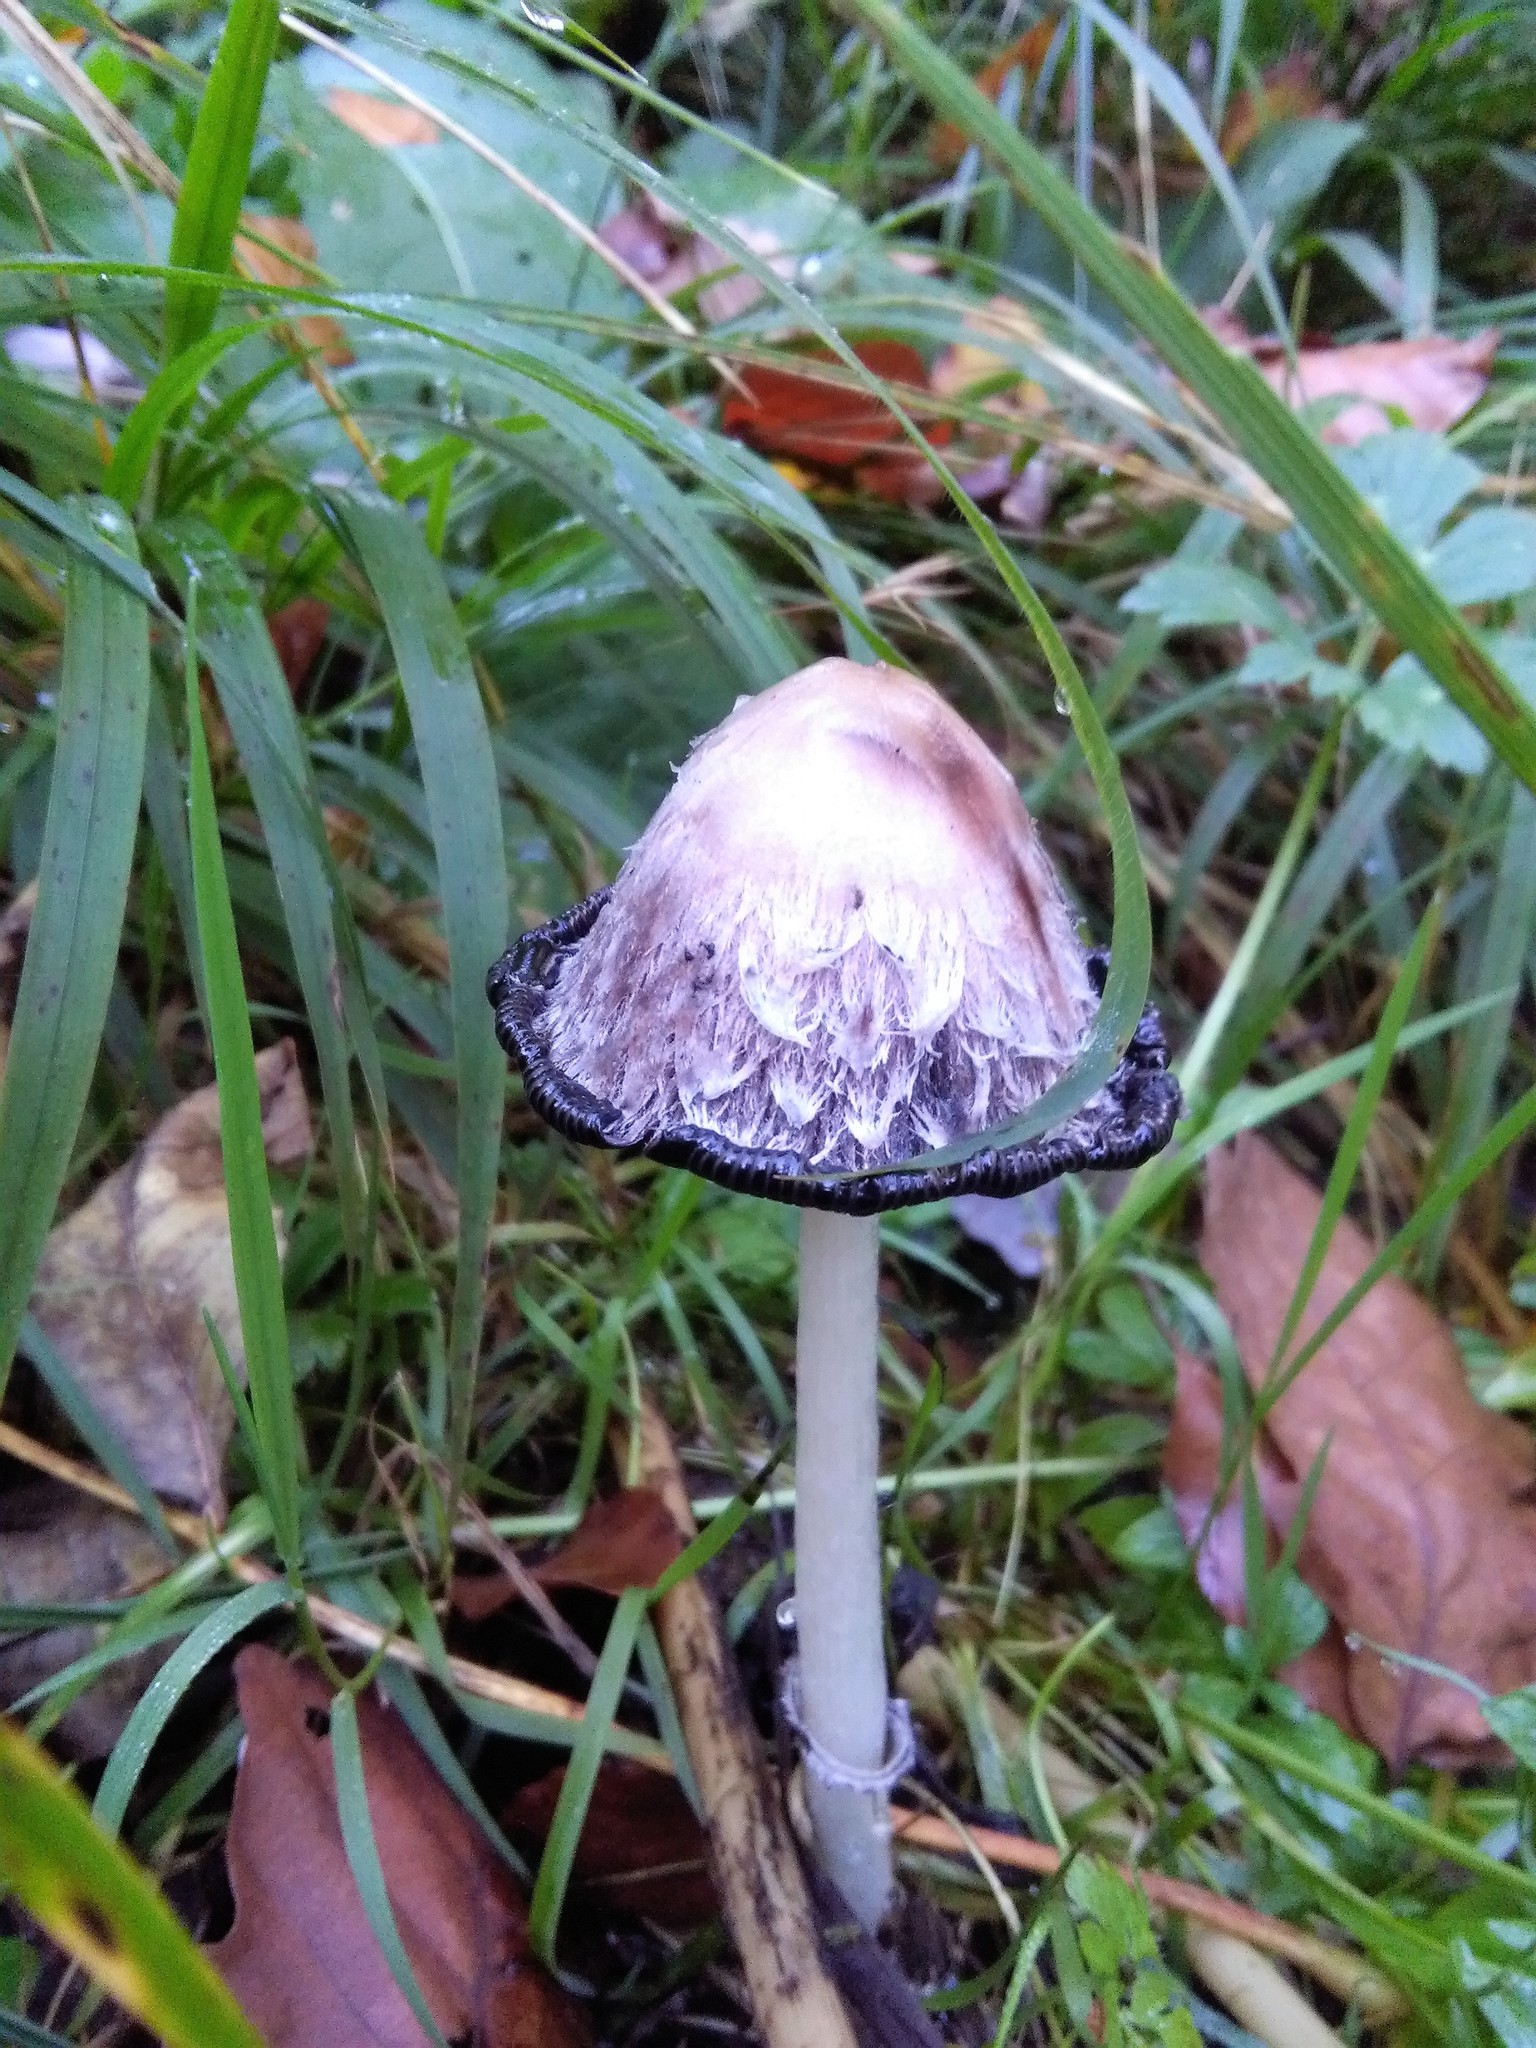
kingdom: Fungi
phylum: Basidiomycota
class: Agaricomycetes
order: Agaricales
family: Agaricaceae
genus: Coprinus
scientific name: Coprinus comatus
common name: Lawyer's wig
